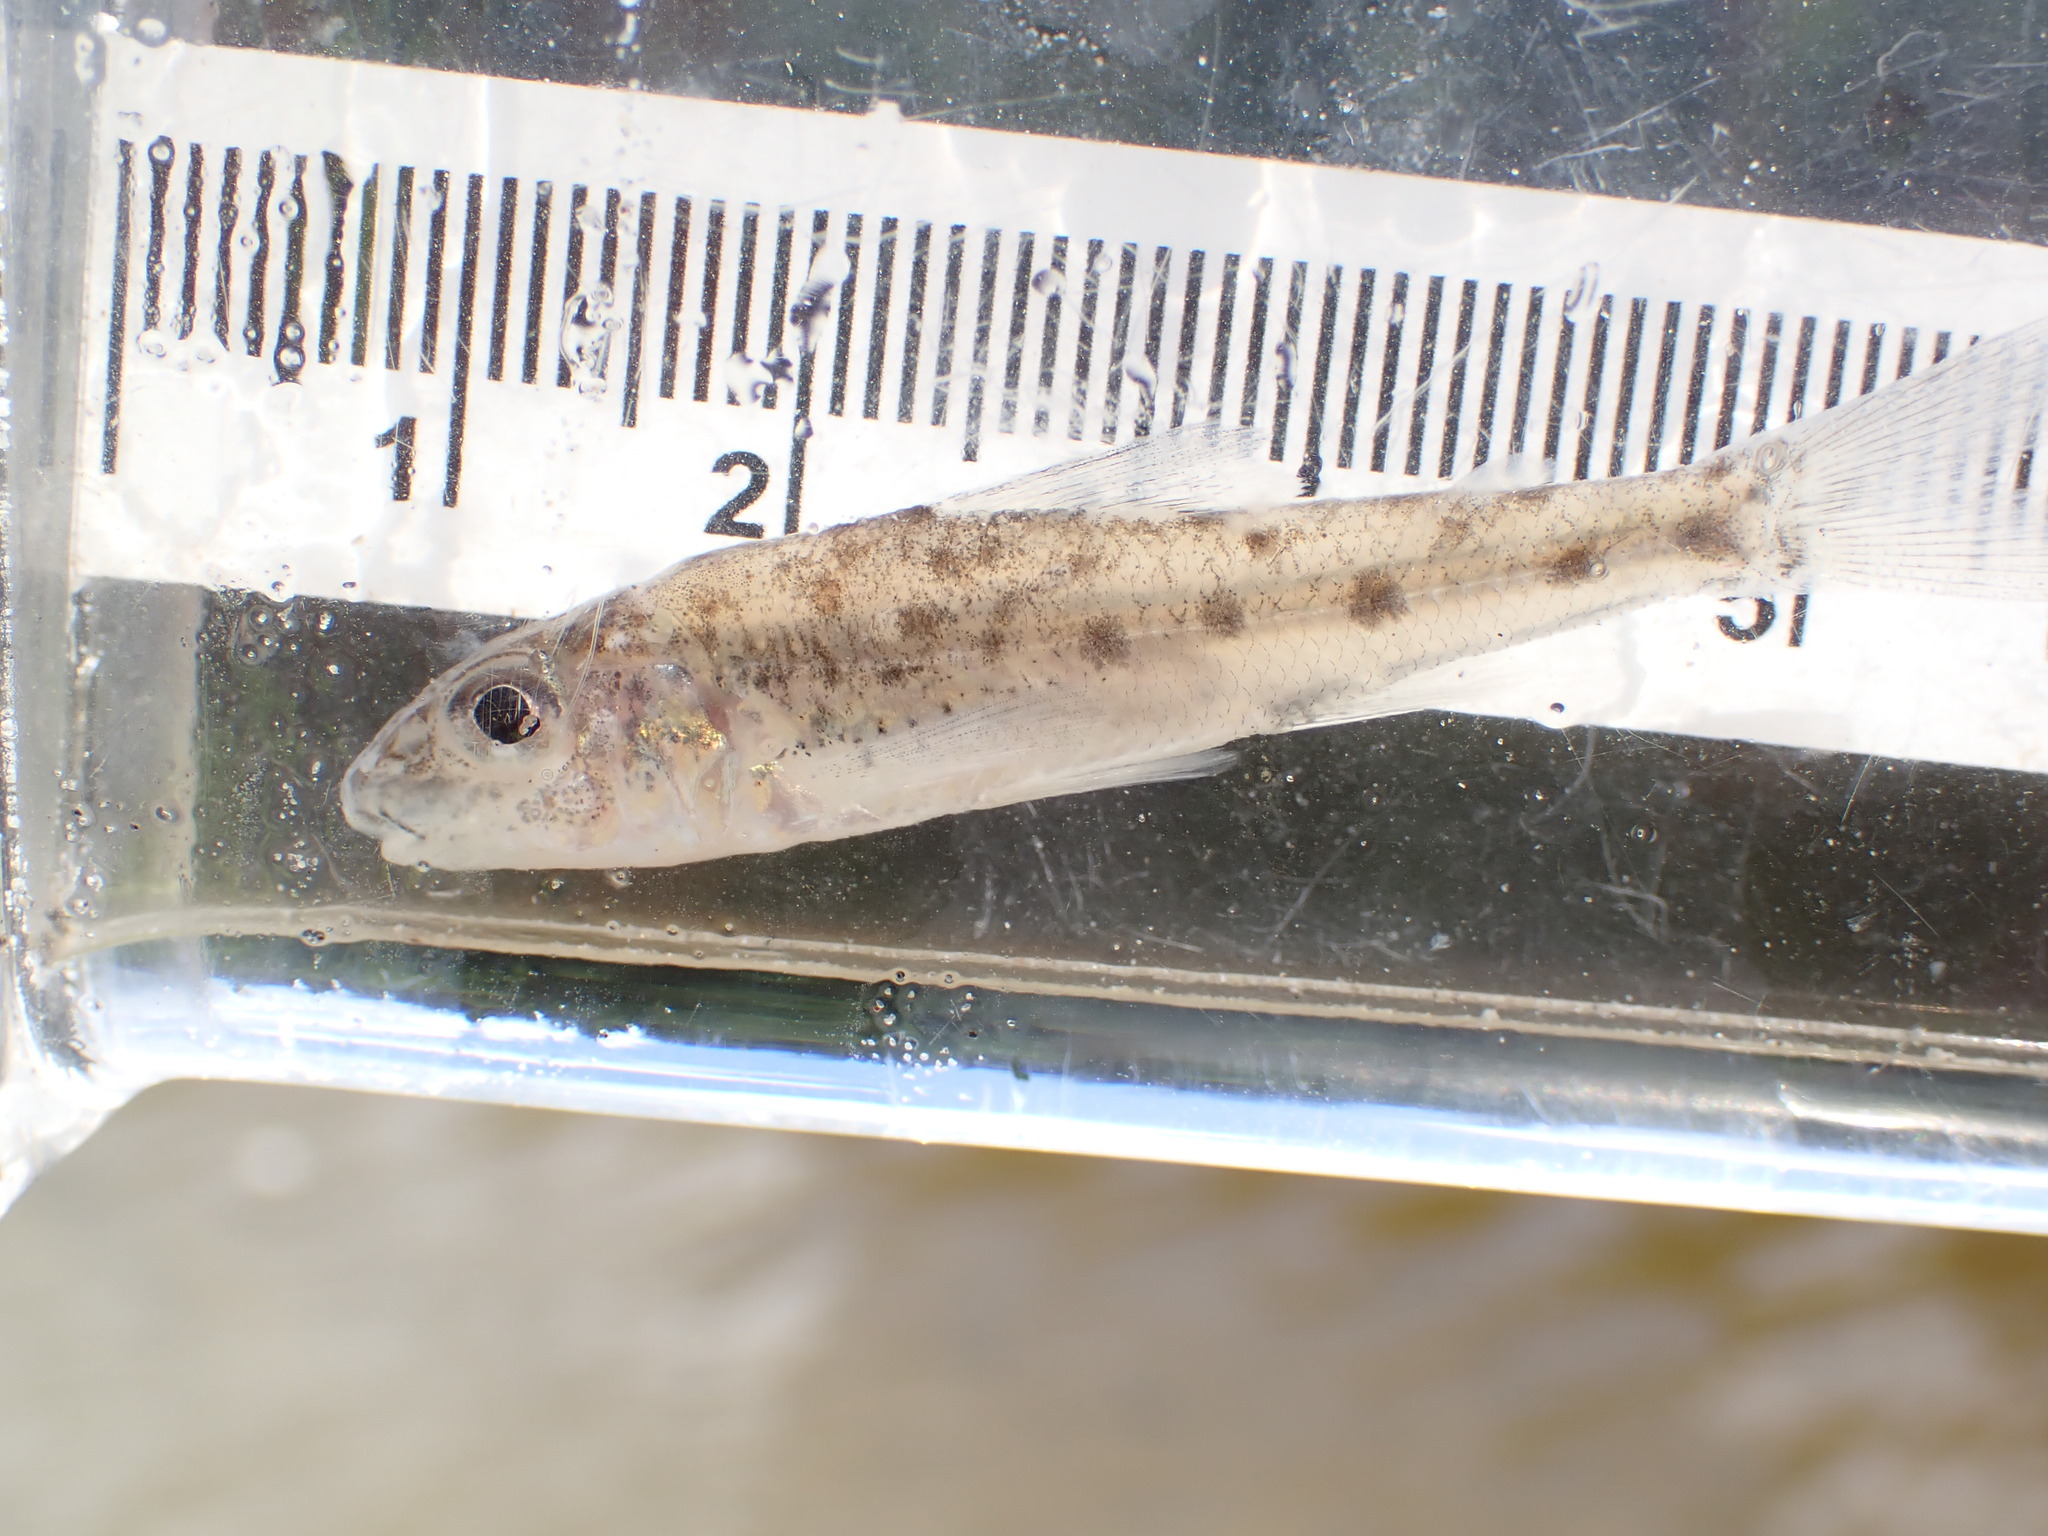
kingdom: Animalia
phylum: Chordata
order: Percopsiformes
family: Percopsidae
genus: Percopsis
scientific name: Percopsis omiscomaycus
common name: Trout-perch
